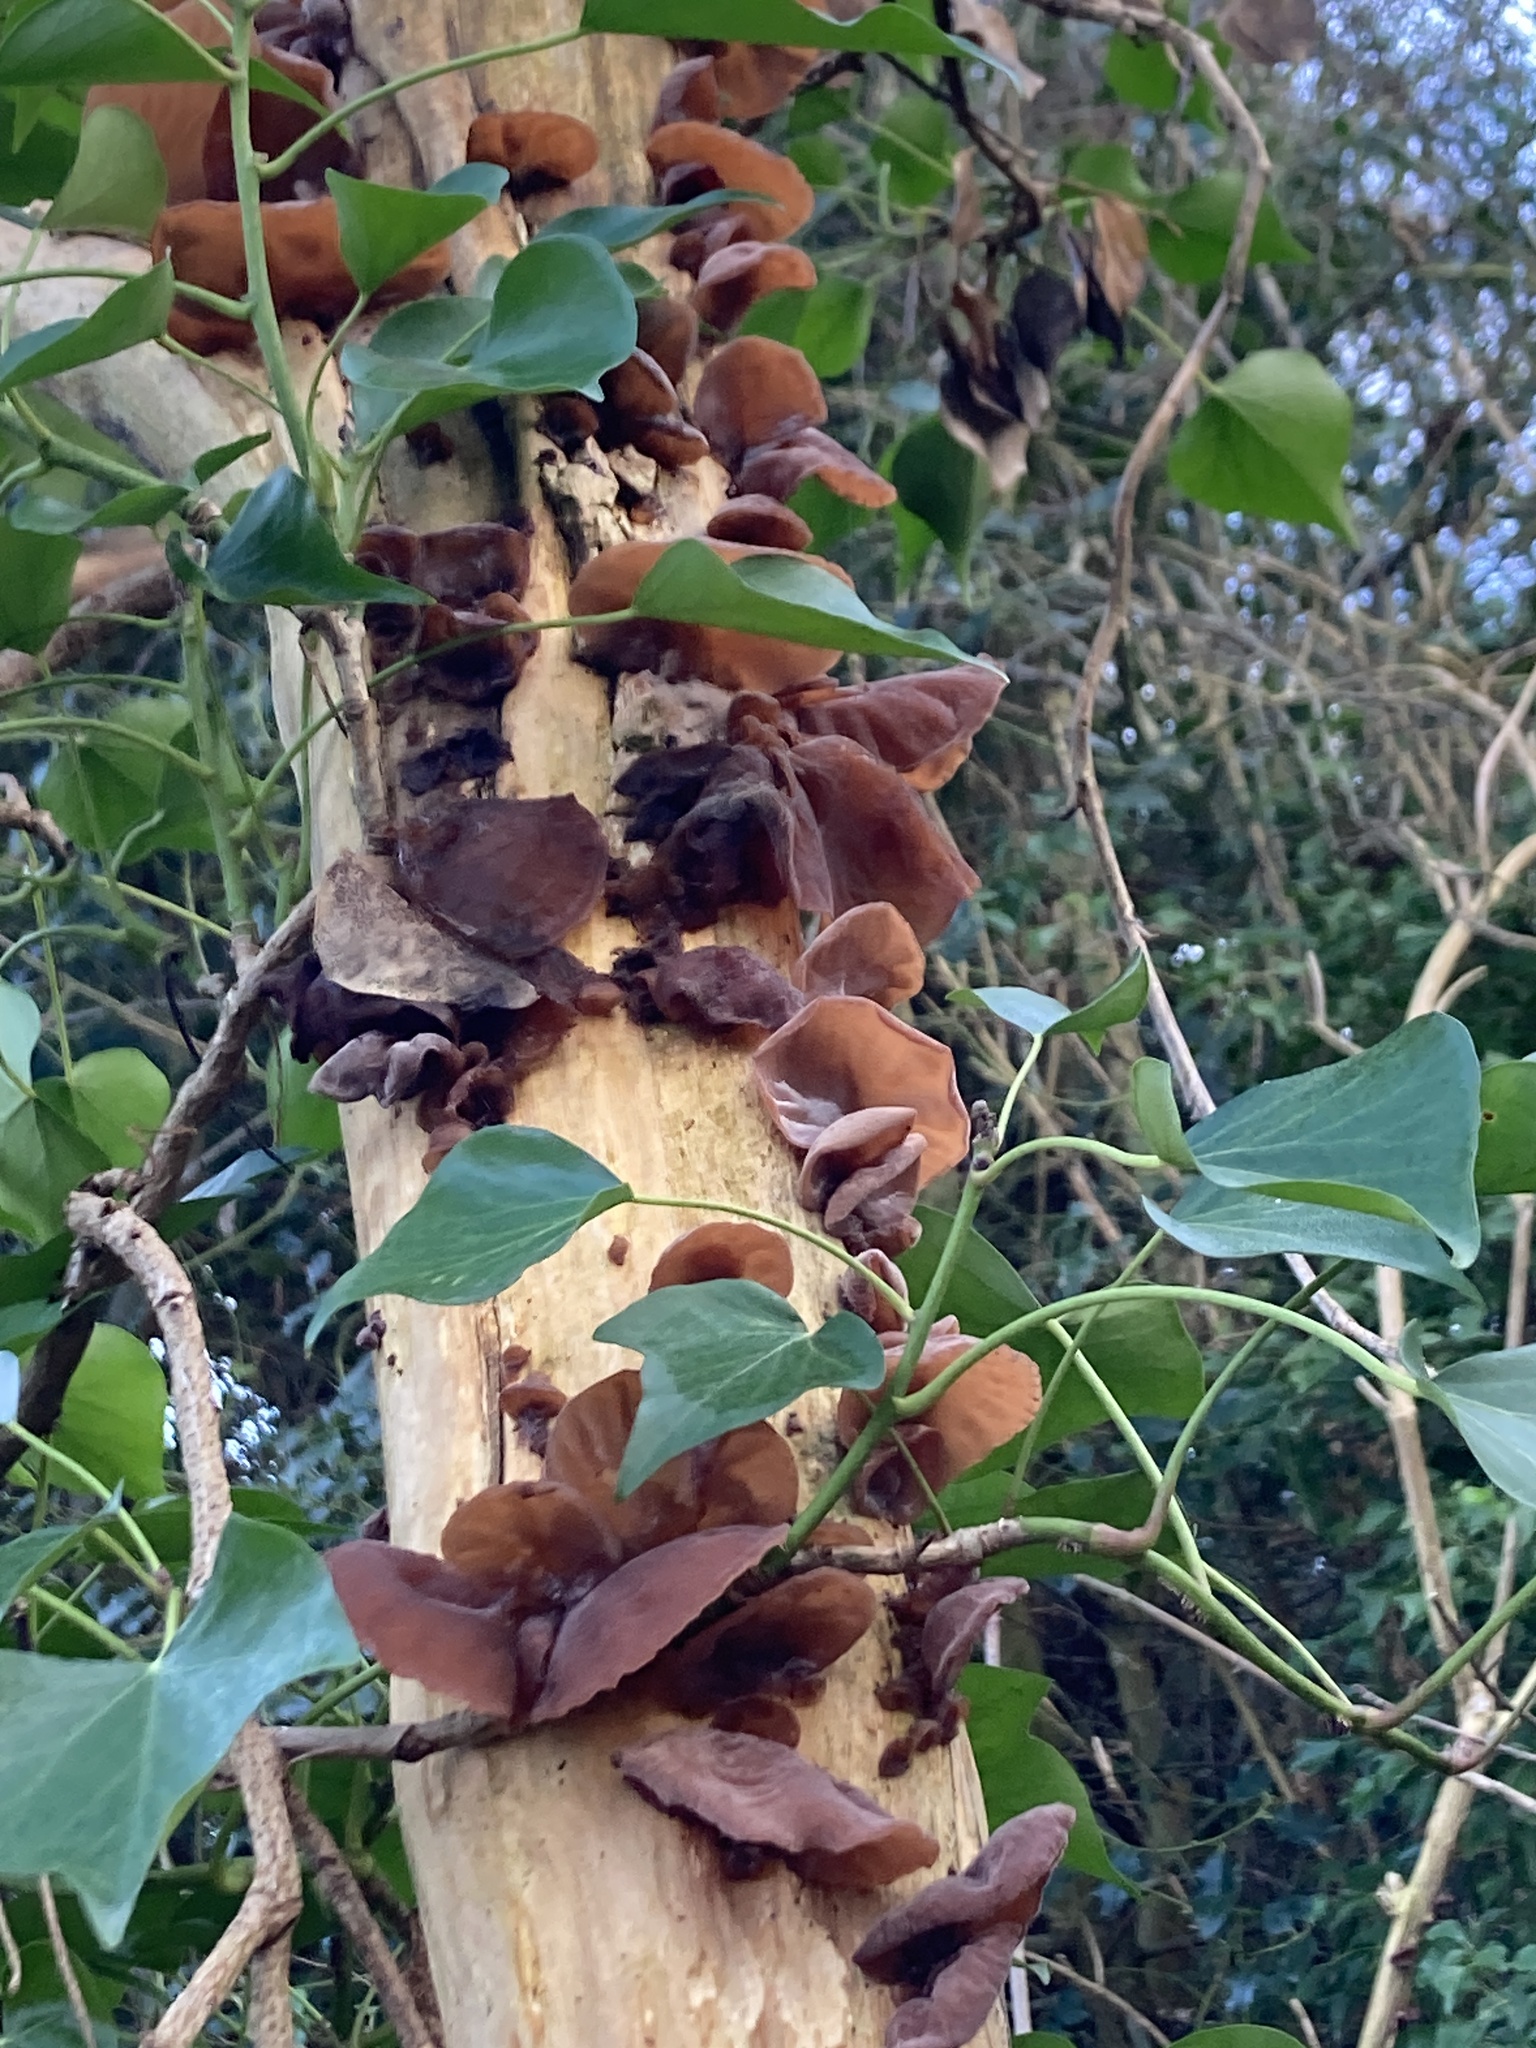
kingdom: Fungi
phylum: Basidiomycota
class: Agaricomycetes
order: Auriculariales
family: Auriculariaceae
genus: Auricularia
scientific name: Auricularia auricula-judae
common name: Jelly ear
